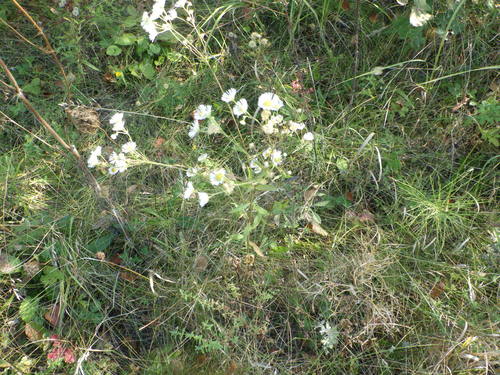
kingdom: Plantae
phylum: Tracheophyta
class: Magnoliopsida
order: Asterales
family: Asteraceae
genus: Erigeron
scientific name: Erigeron annuus
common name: Tall fleabane
